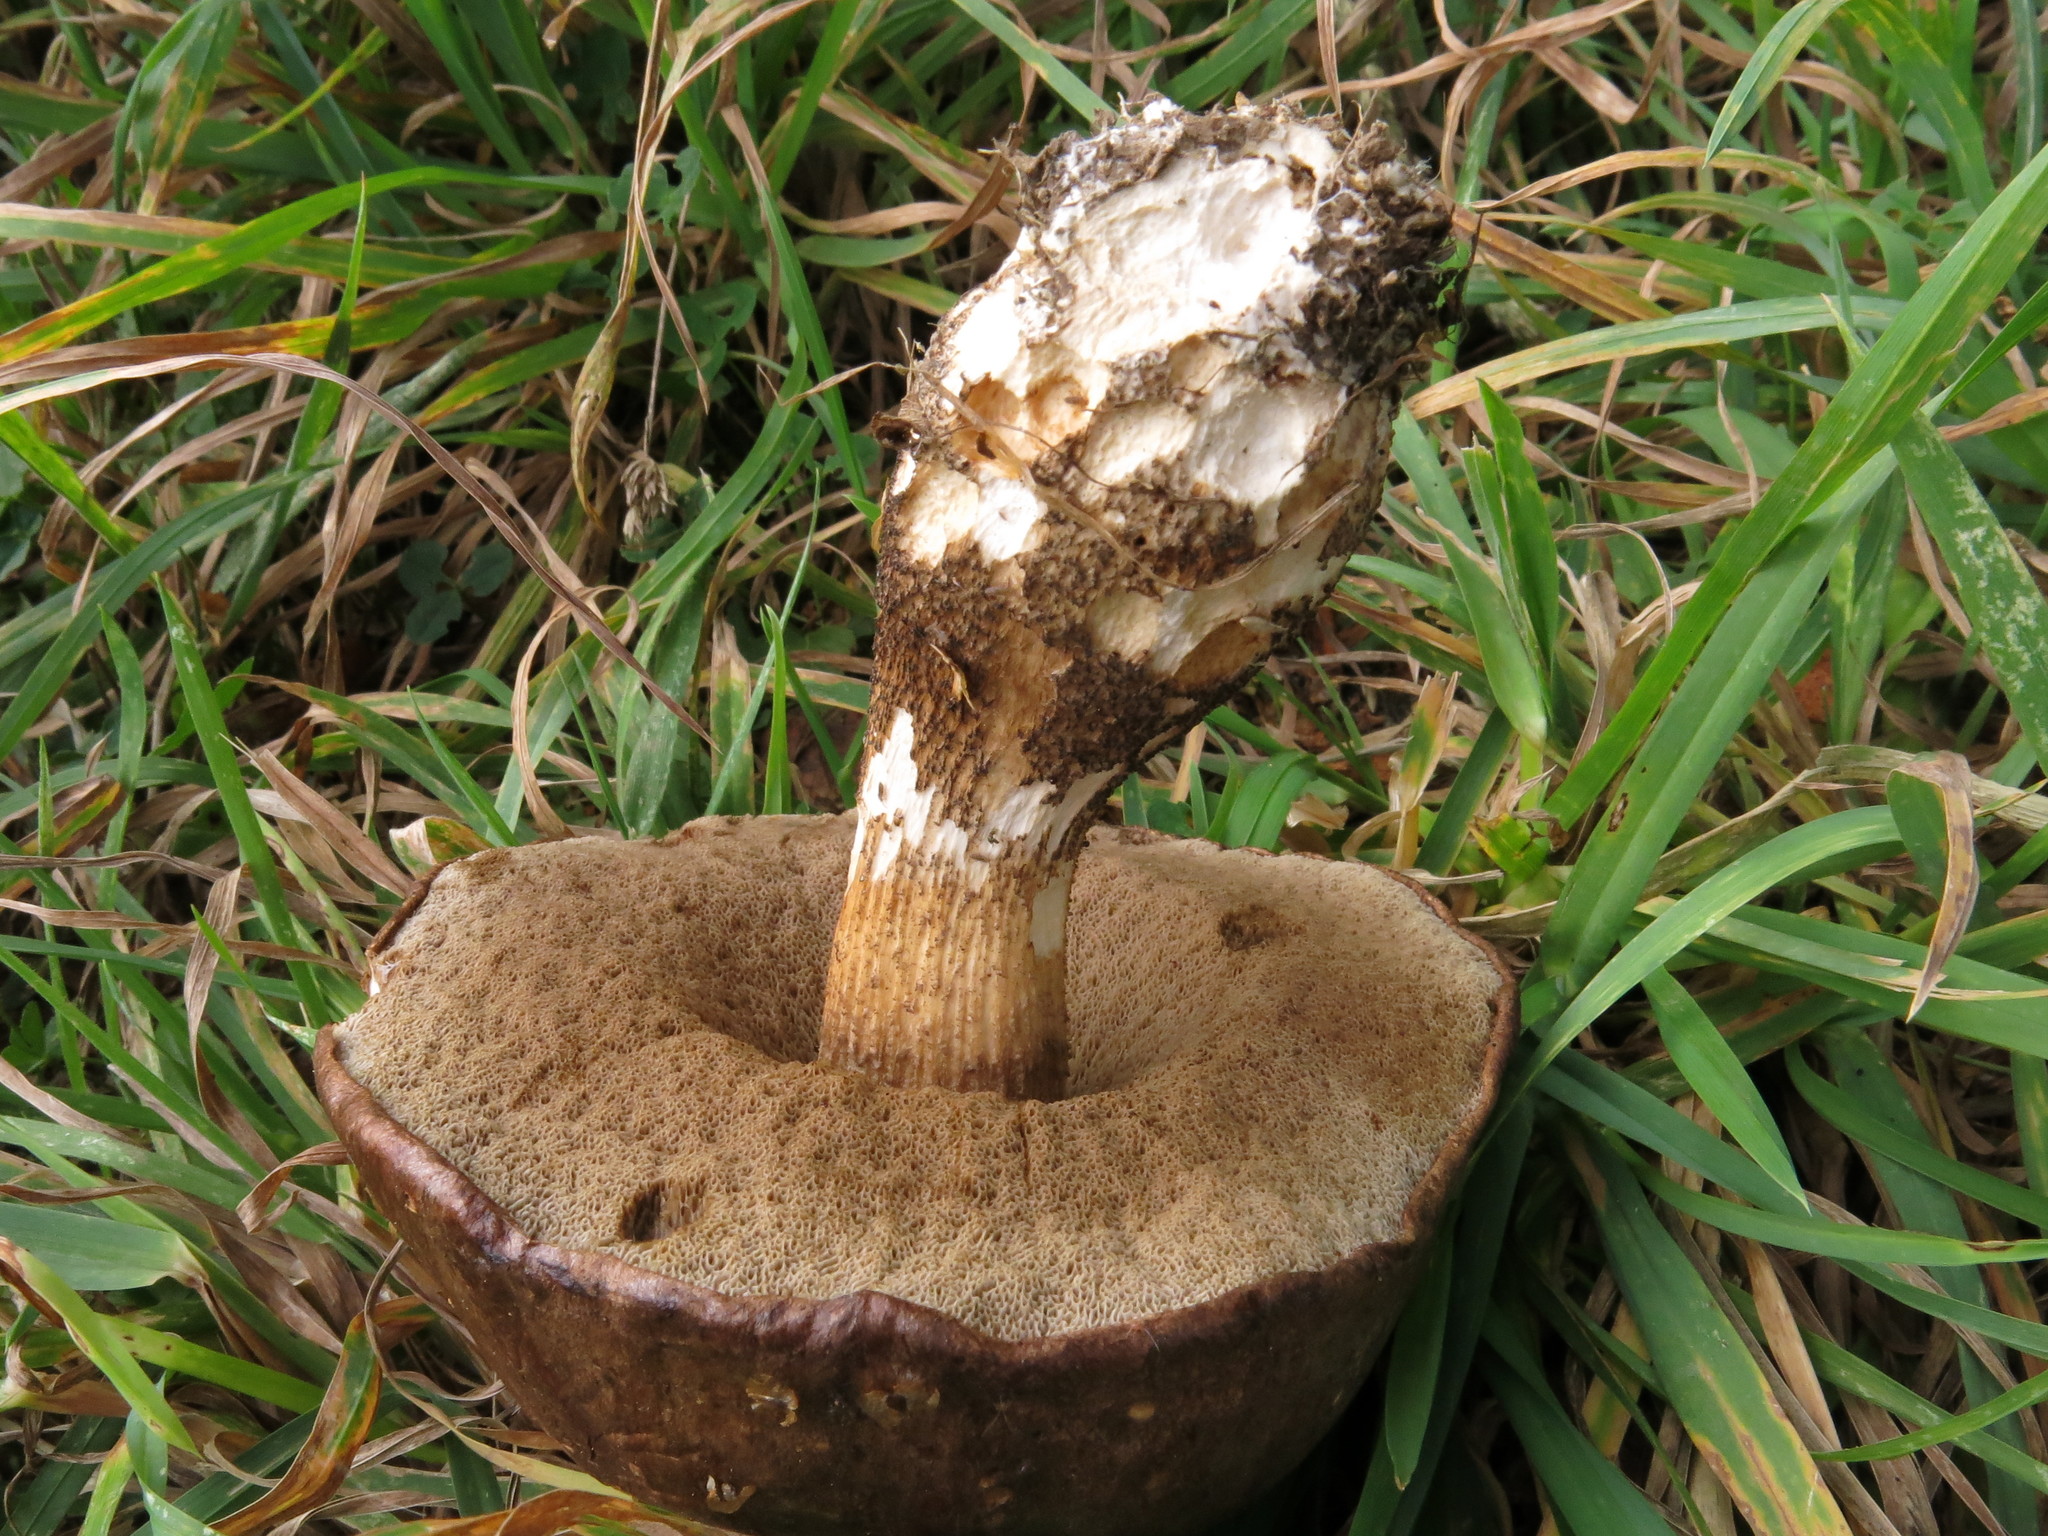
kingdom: Fungi
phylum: Basidiomycota
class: Agaricomycetes
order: Boletales
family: Boletaceae
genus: Leccinum
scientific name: Leccinum scabrum
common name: Blushing bolete
